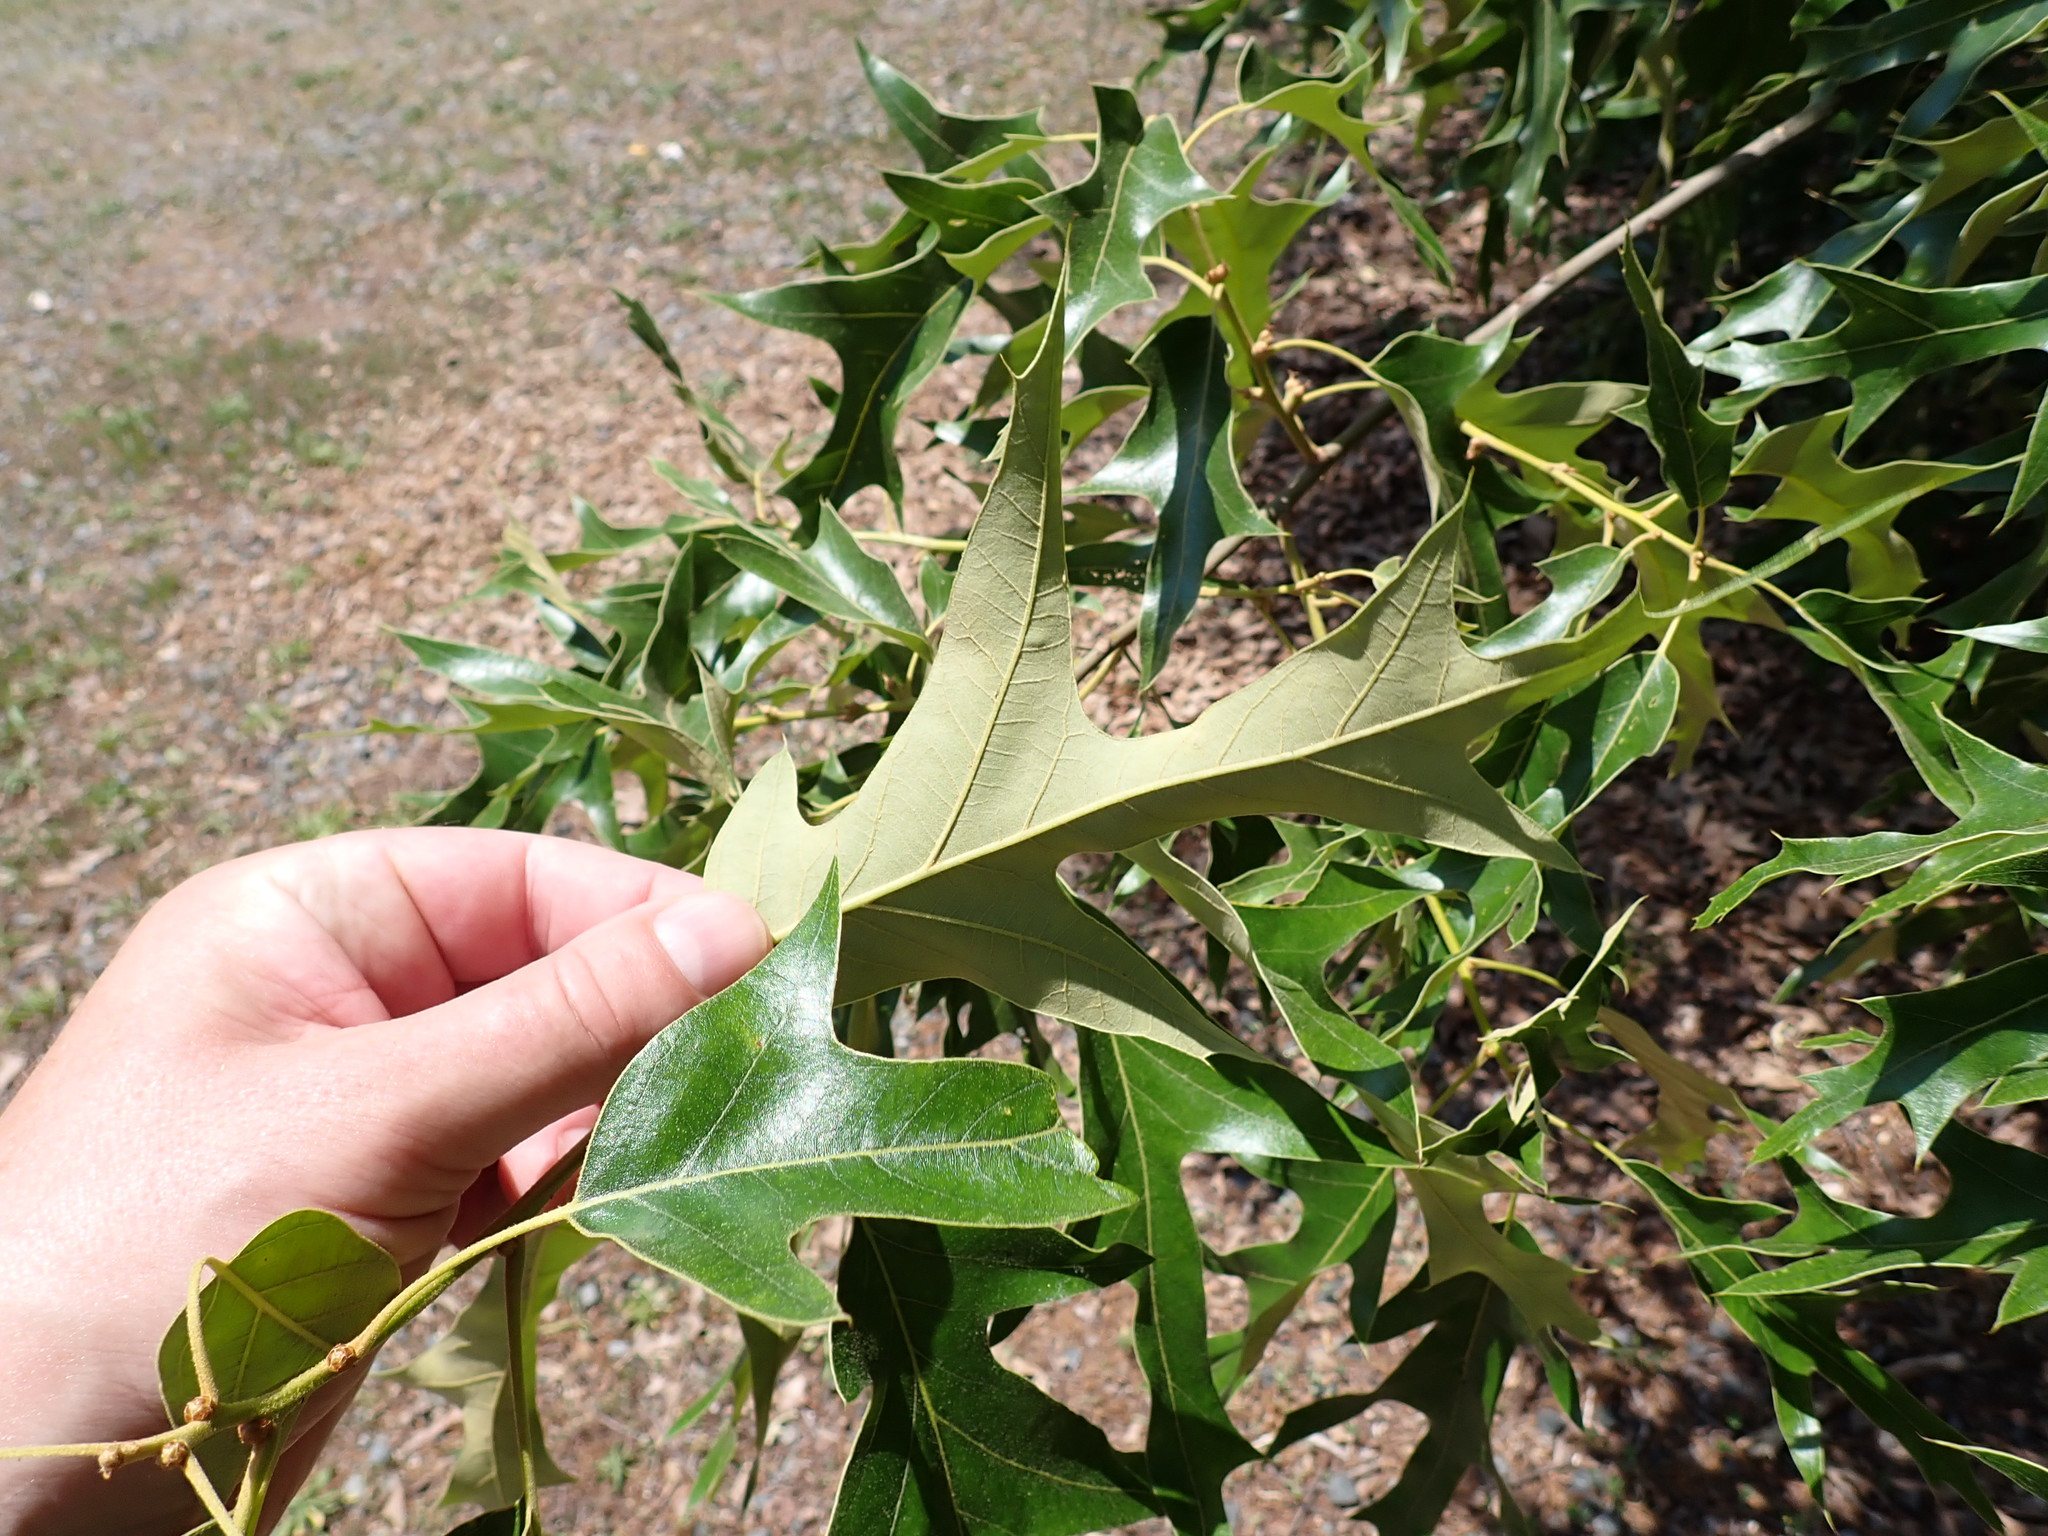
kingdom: Plantae
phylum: Tracheophyta
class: Magnoliopsida
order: Fagales
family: Fagaceae
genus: Quercus
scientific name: Quercus falcata
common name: Southern red oak
